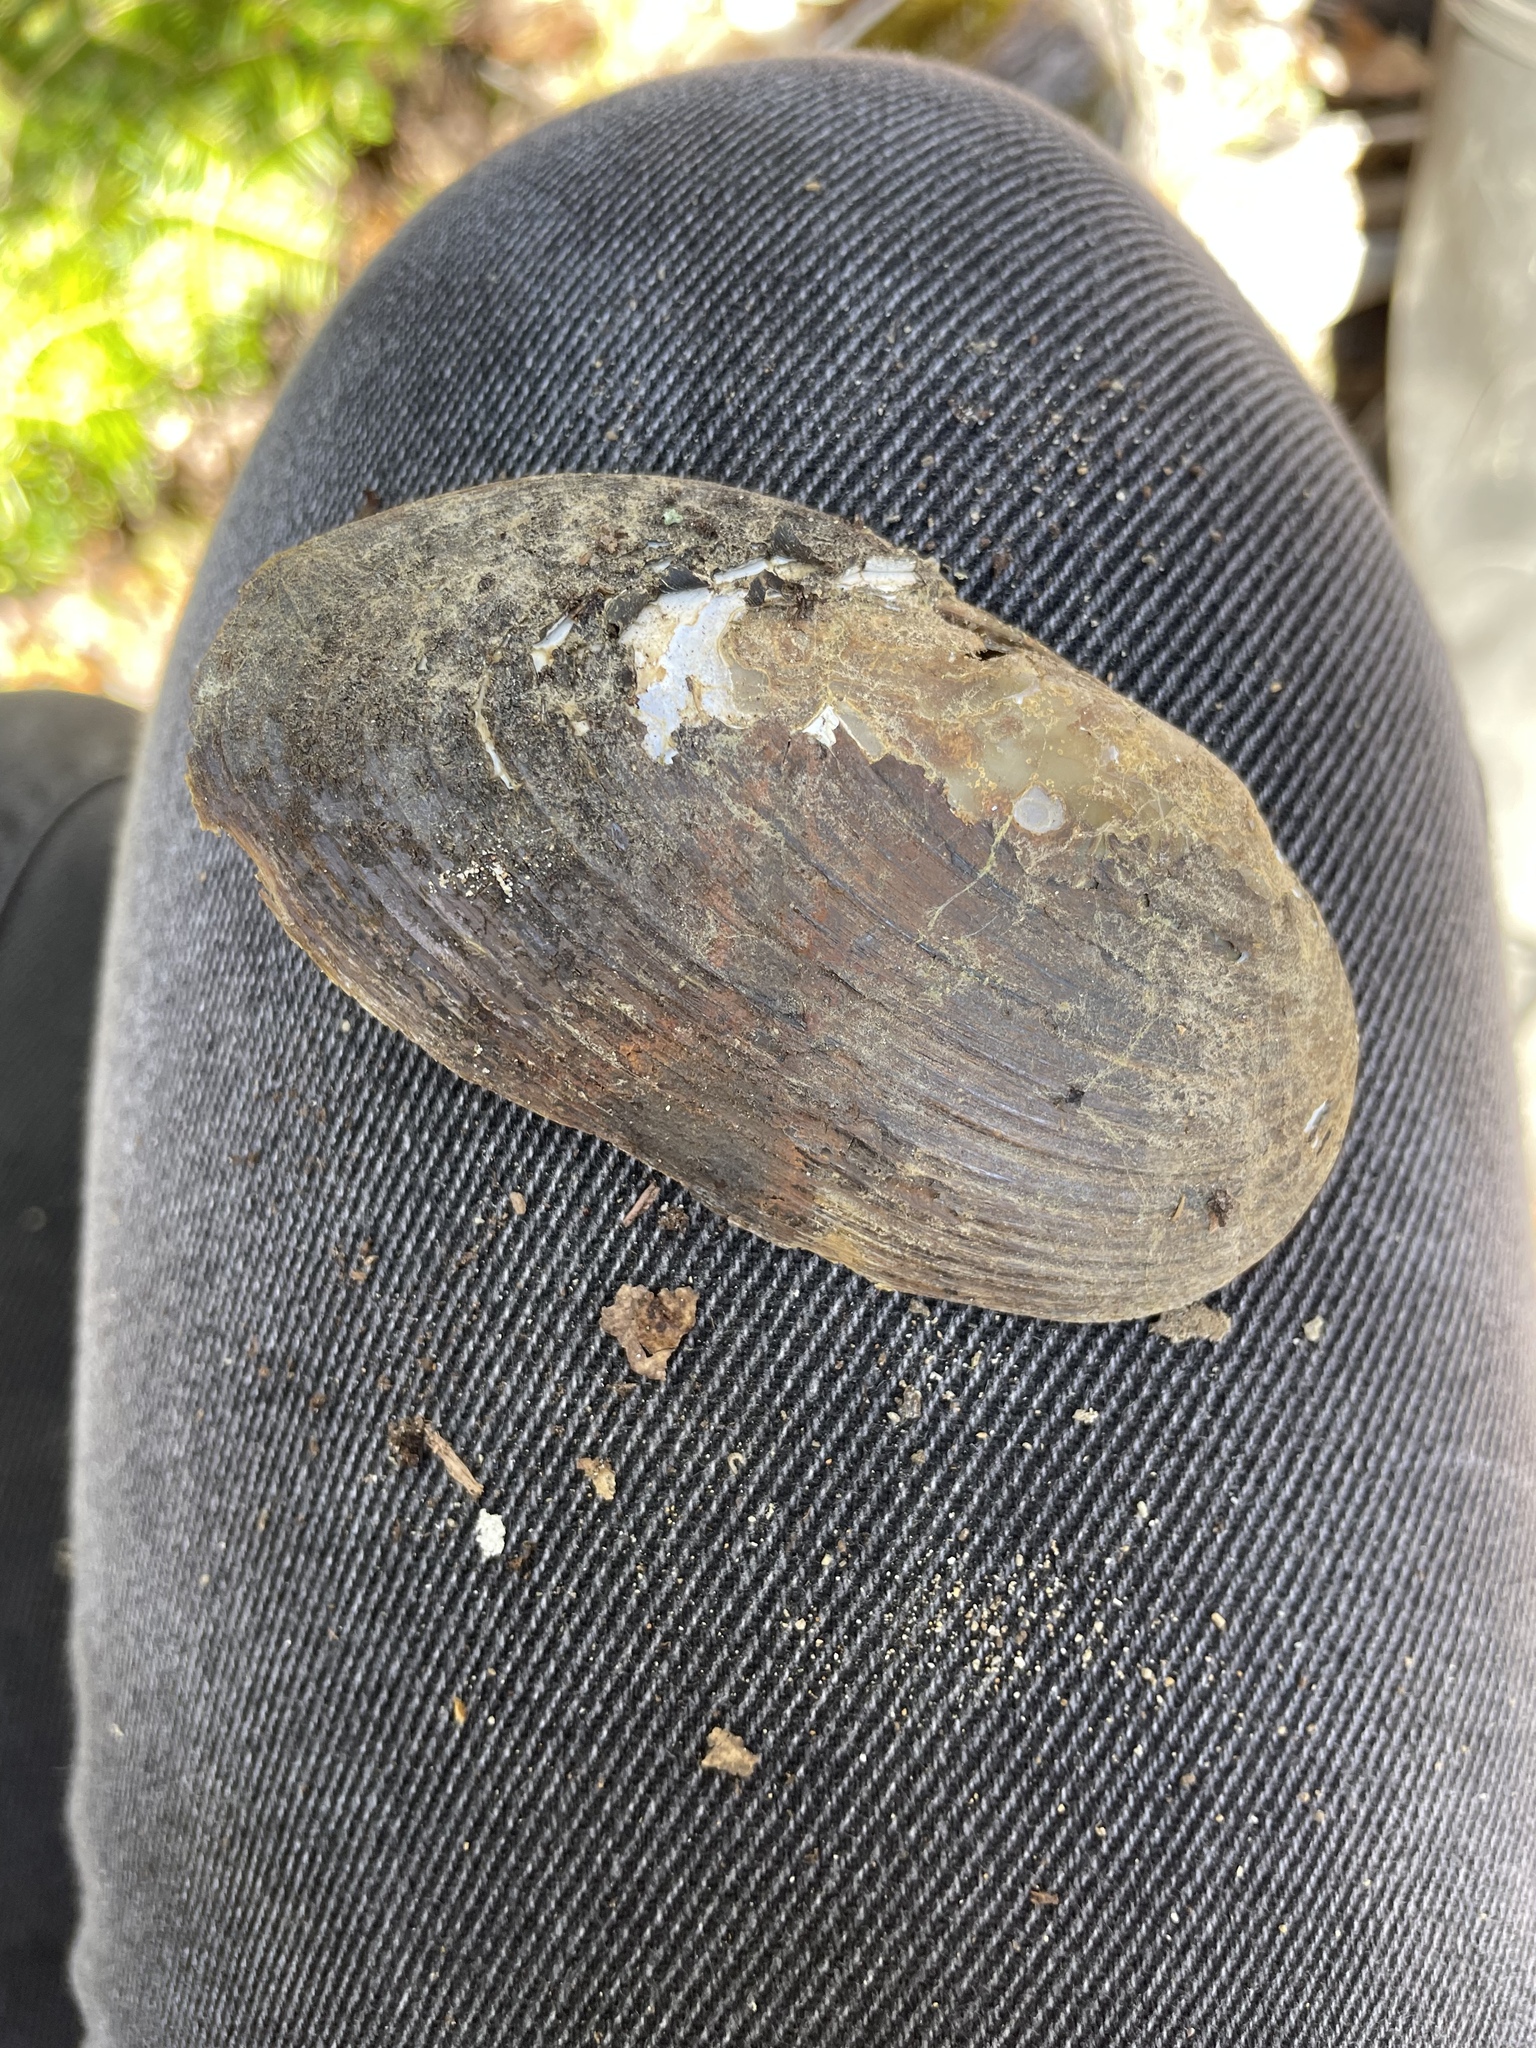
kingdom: Animalia
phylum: Mollusca
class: Bivalvia
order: Unionida
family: Unionidae
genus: Elliptio
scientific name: Elliptio complanata
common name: Eastern elliptio
